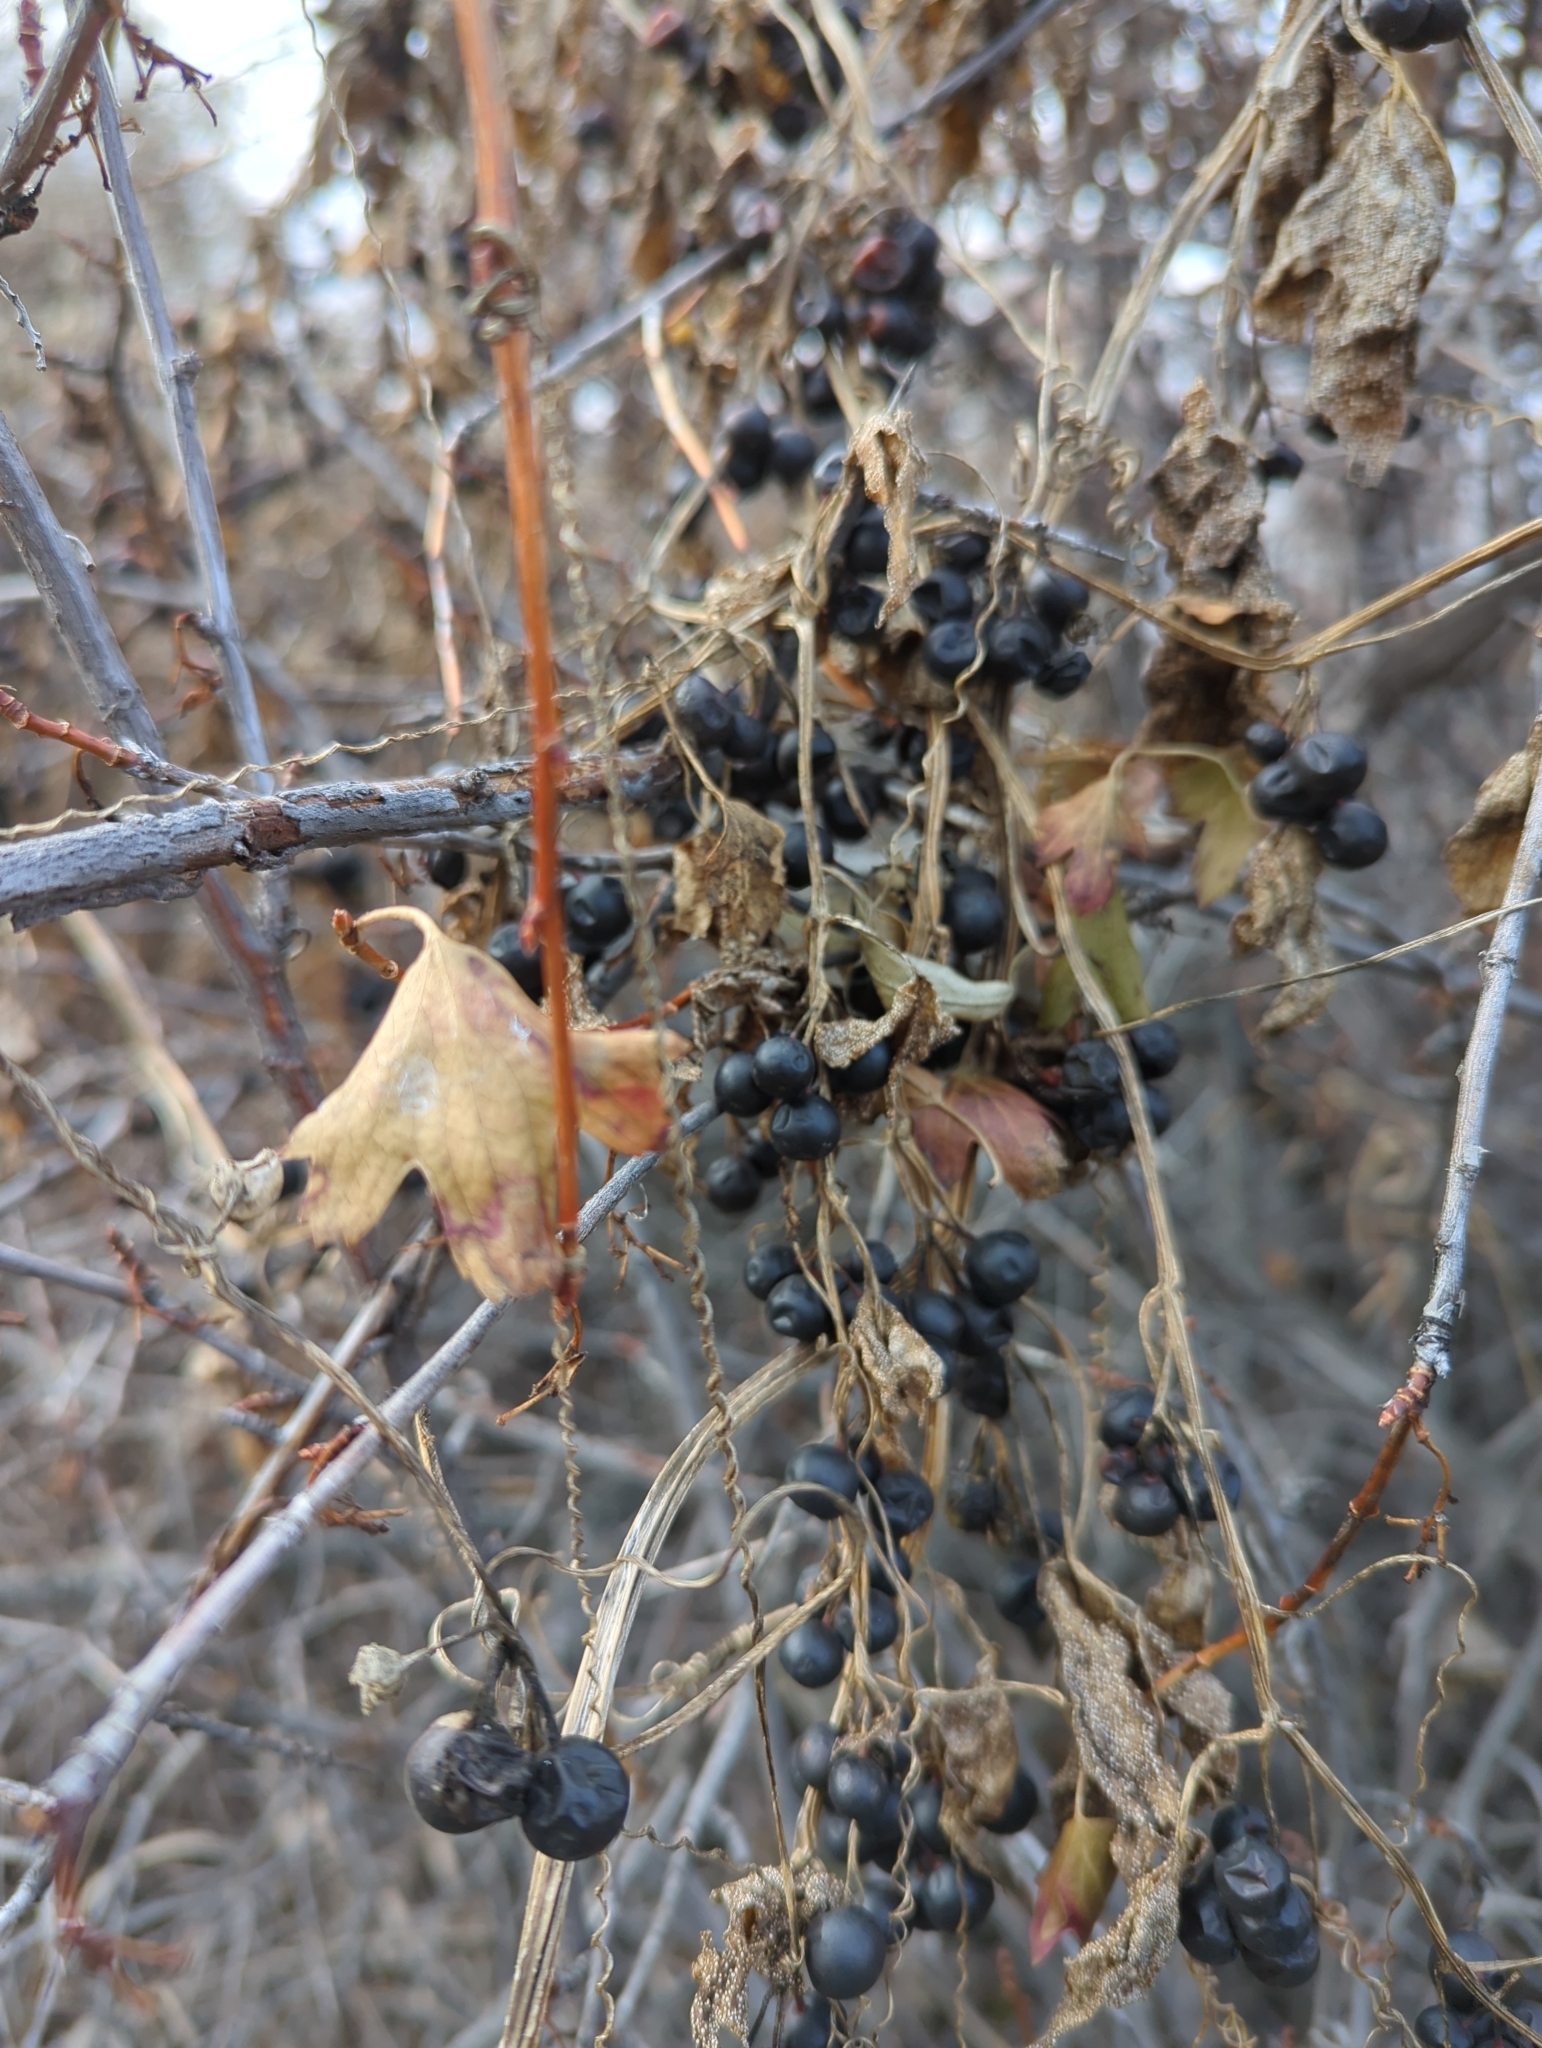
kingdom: Plantae
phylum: Tracheophyta
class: Magnoliopsida
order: Saxifragales
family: Grossulariaceae
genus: Ribes
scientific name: Ribes aureum
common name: Golden currant
